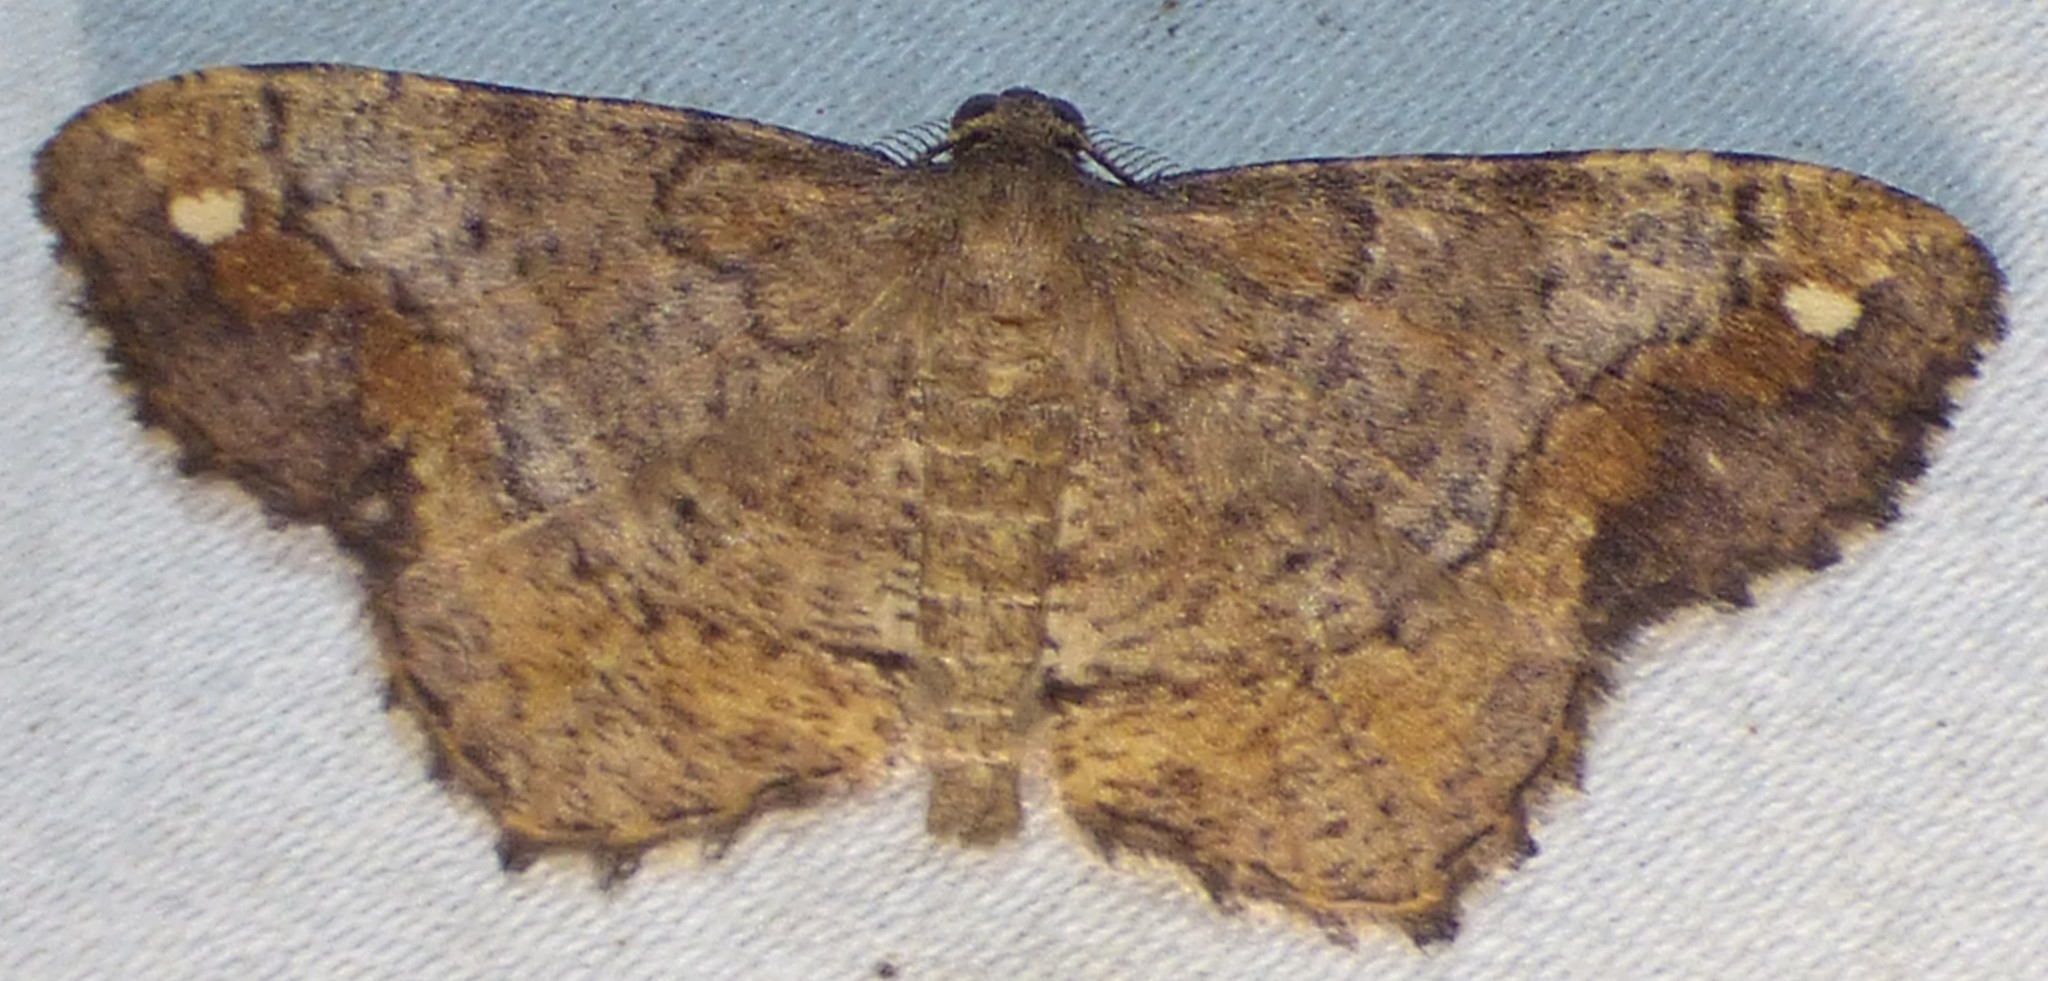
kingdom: Animalia
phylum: Arthropoda
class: Insecta
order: Lepidoptera
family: Geometridae
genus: Hypagyrtis
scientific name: Hypagyrtis unipunctata
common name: One-spotted variant
